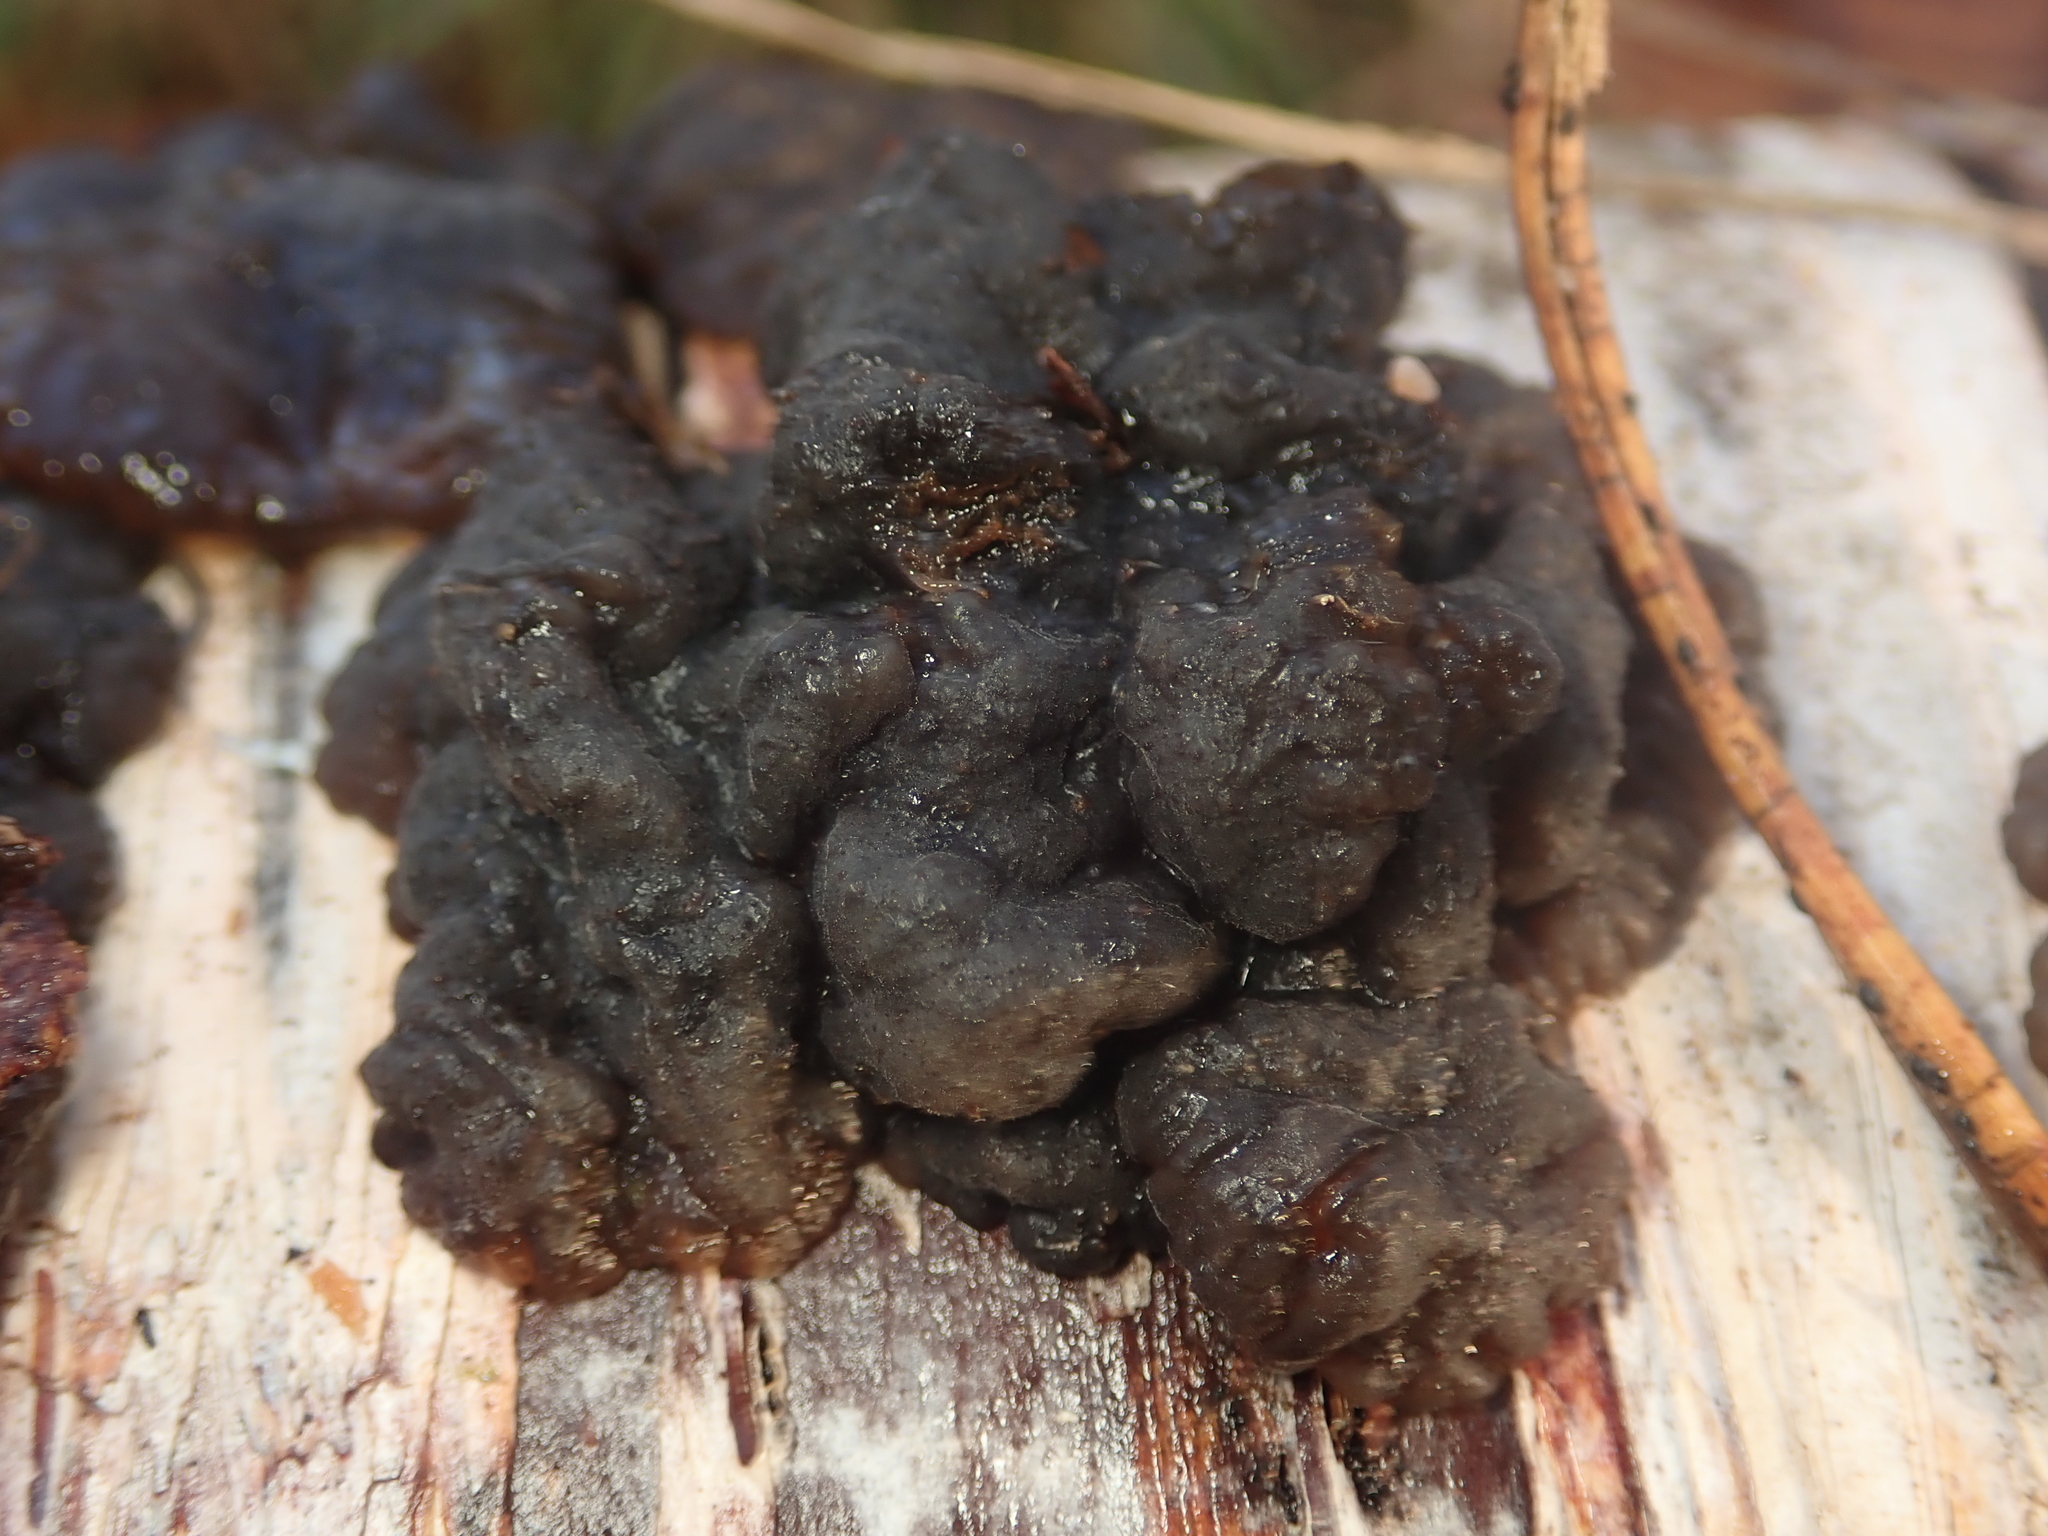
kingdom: Fungi
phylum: Basidiomycota
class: Agaricomycetes
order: Auriculariales
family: Auriculariaceae
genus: Exidia
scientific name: Exidia nigricans
